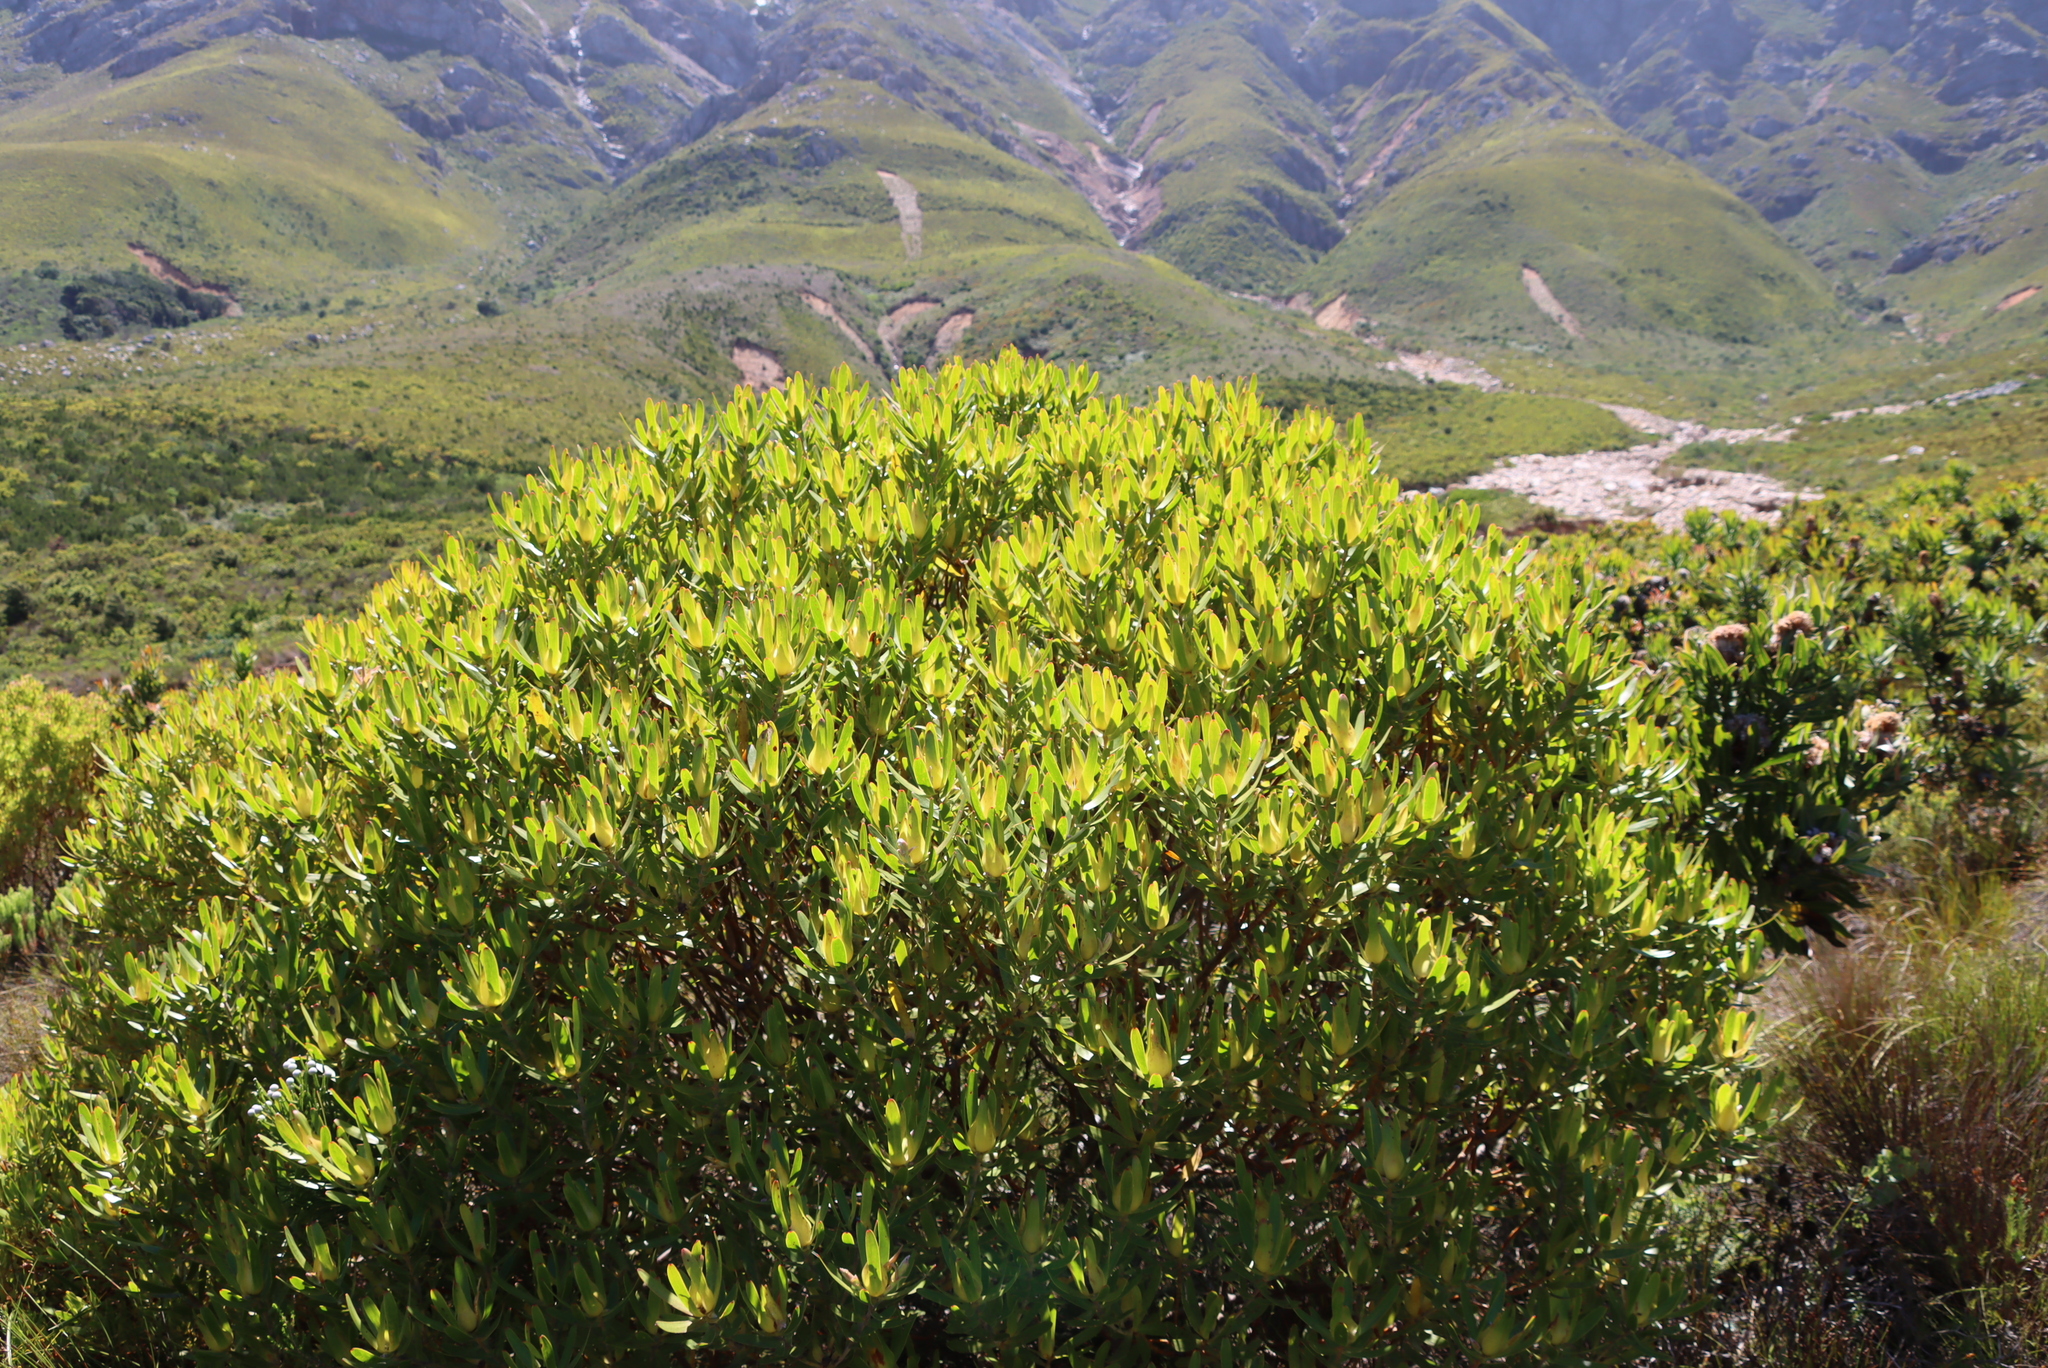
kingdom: Plantae
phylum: Tracheophyta
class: Magnoliopsida
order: Proteales
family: Proteaceae
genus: Leucadendron
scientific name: Leucadendron laureolum
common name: Golden sunshinebush
